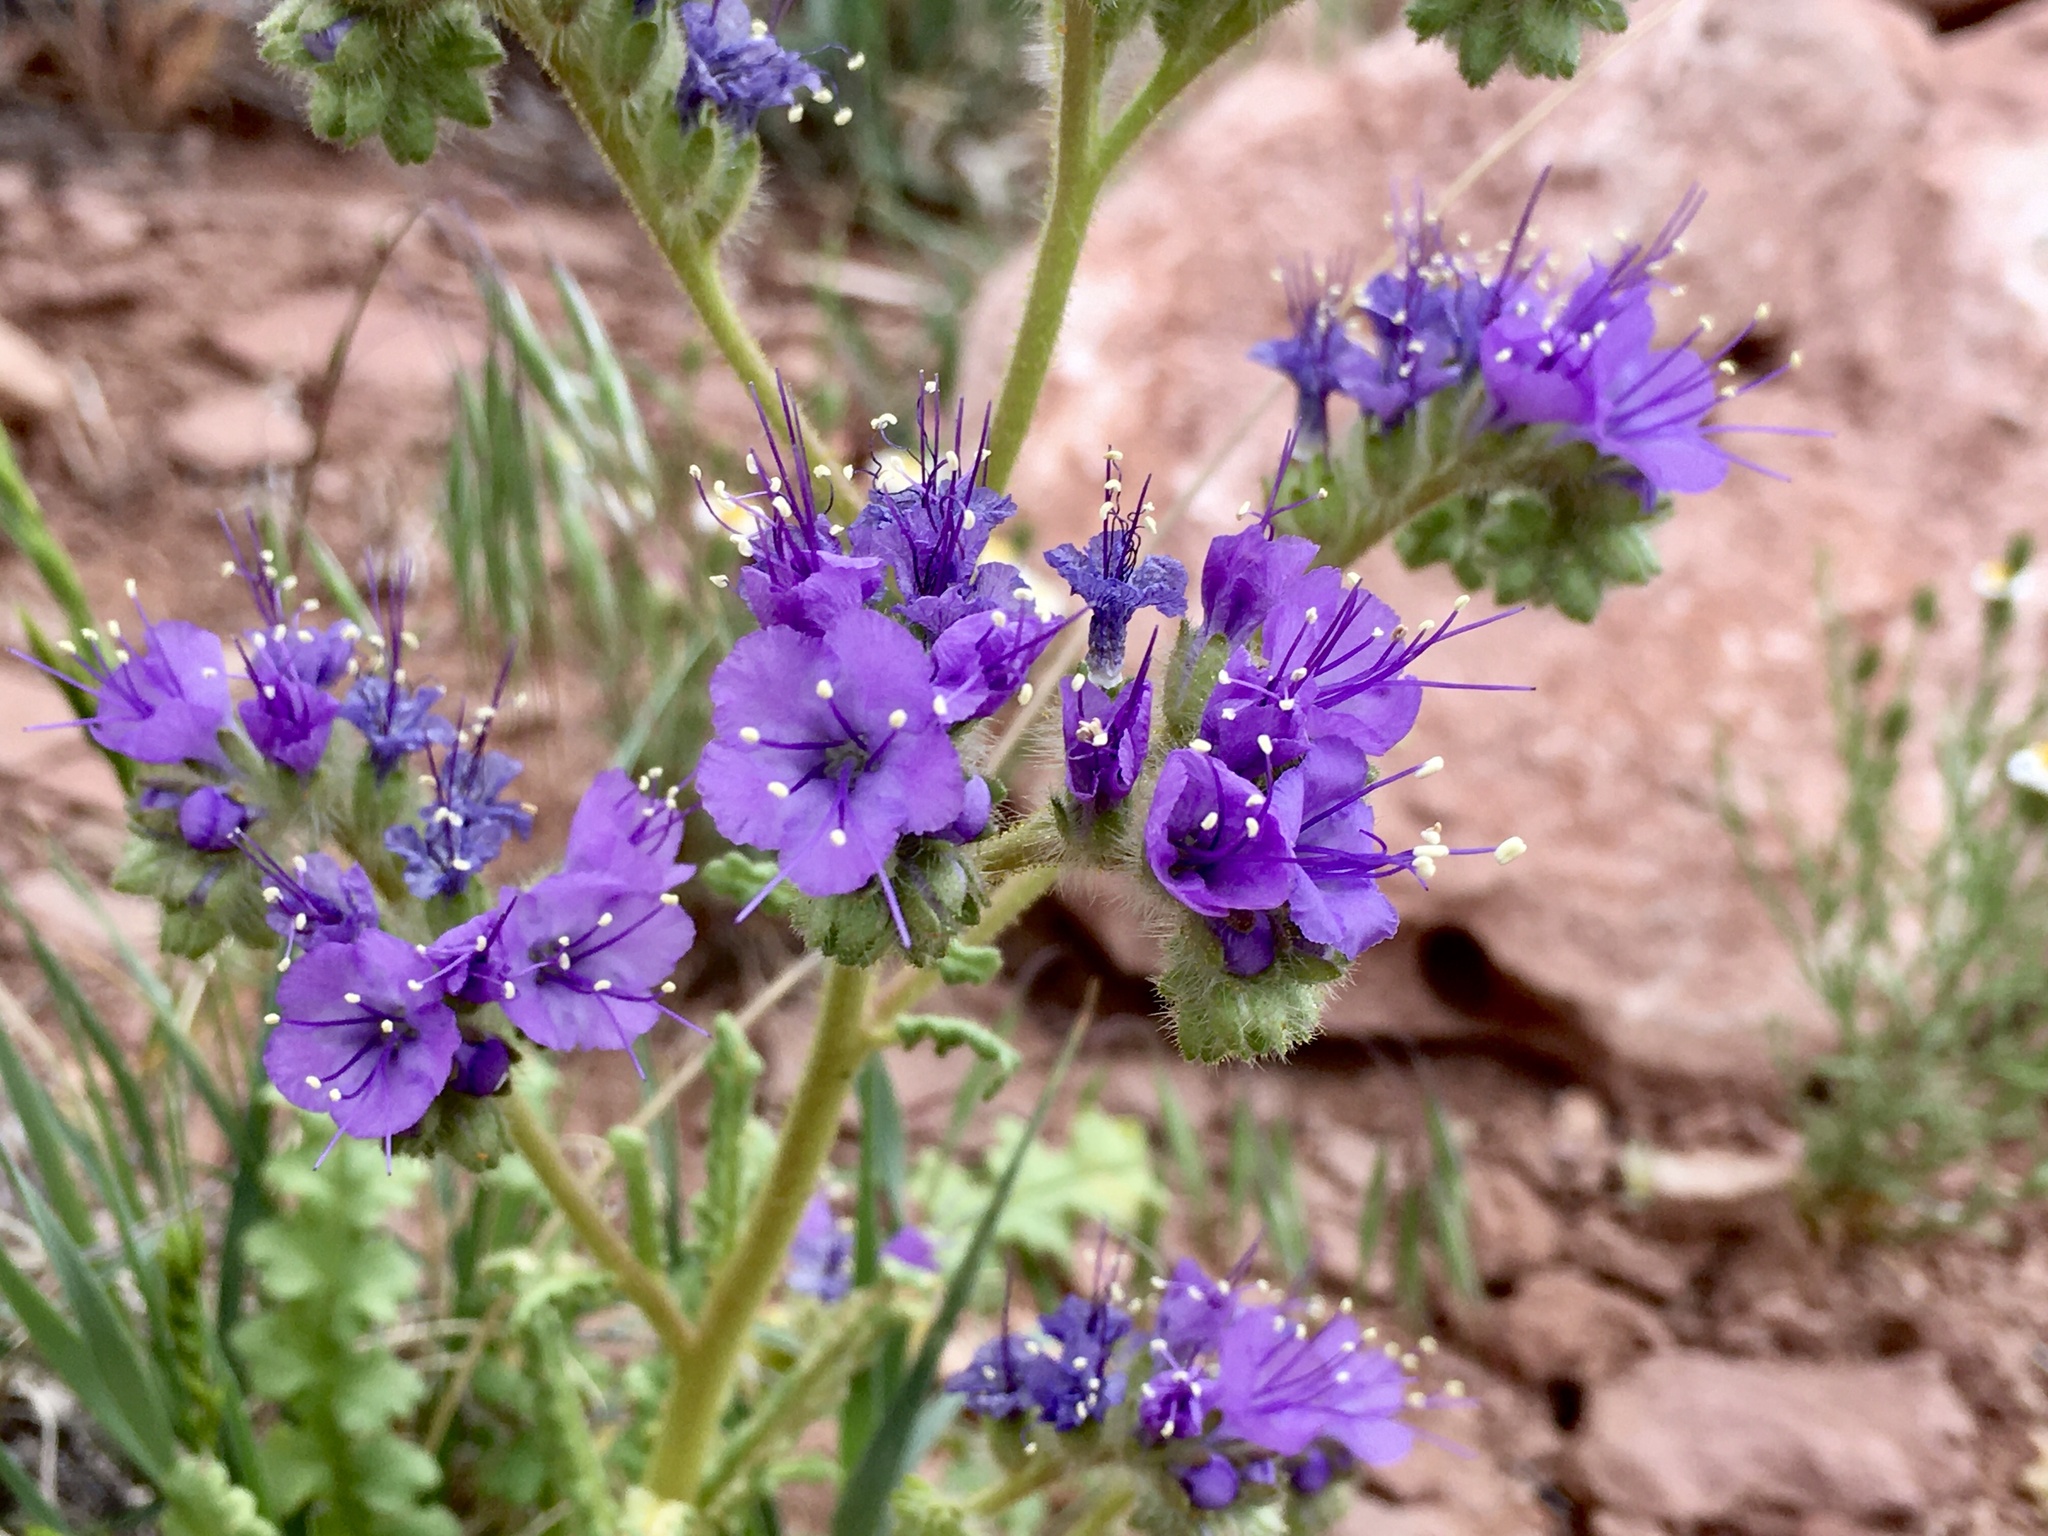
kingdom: Plantae
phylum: Tracheophyta
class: Magnoliopsida
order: Boraginales
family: Hydrophyllaceae
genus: Phacelia
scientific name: Phacelia crenulata
